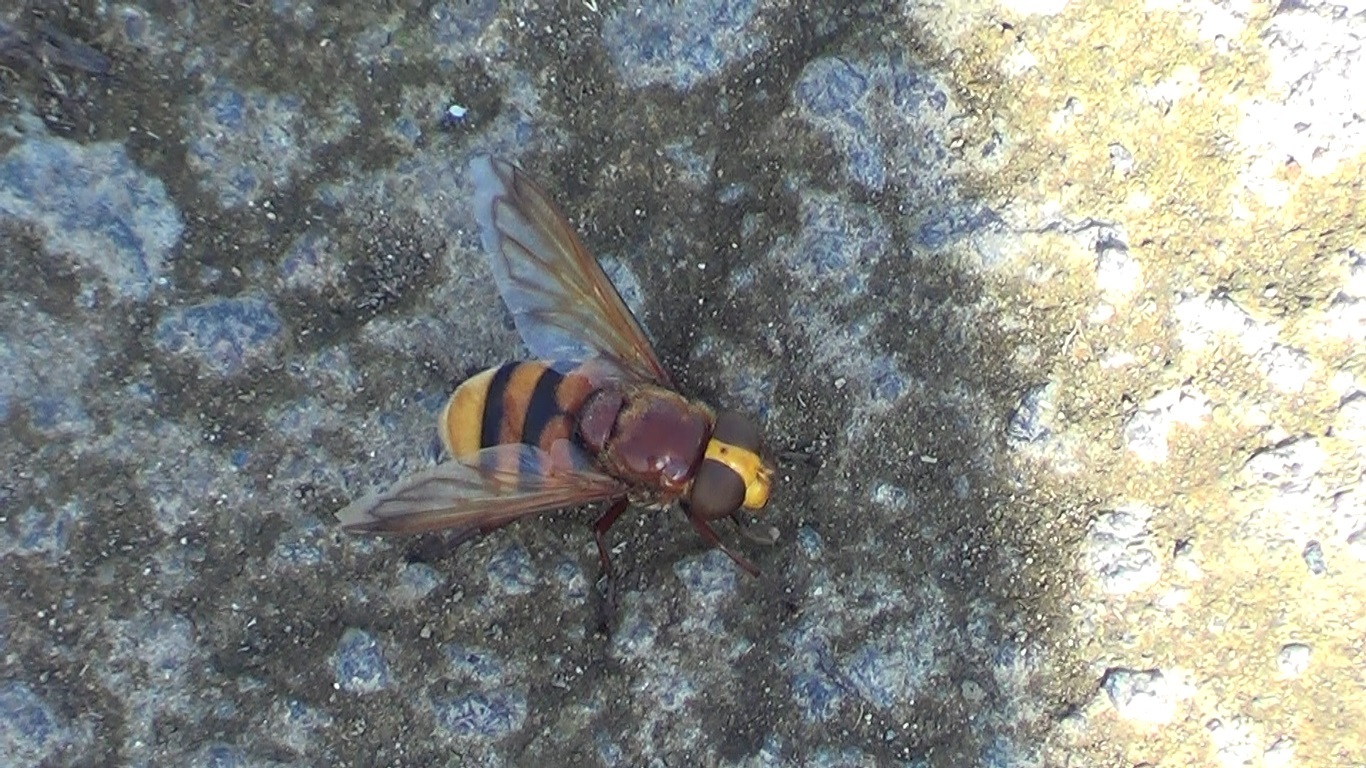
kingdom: Animalia
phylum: Arthropoda
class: Insecta
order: Diptera
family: Syrphidae
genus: Volucella
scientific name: Volucella zonaria
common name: Hornet hoverfly
